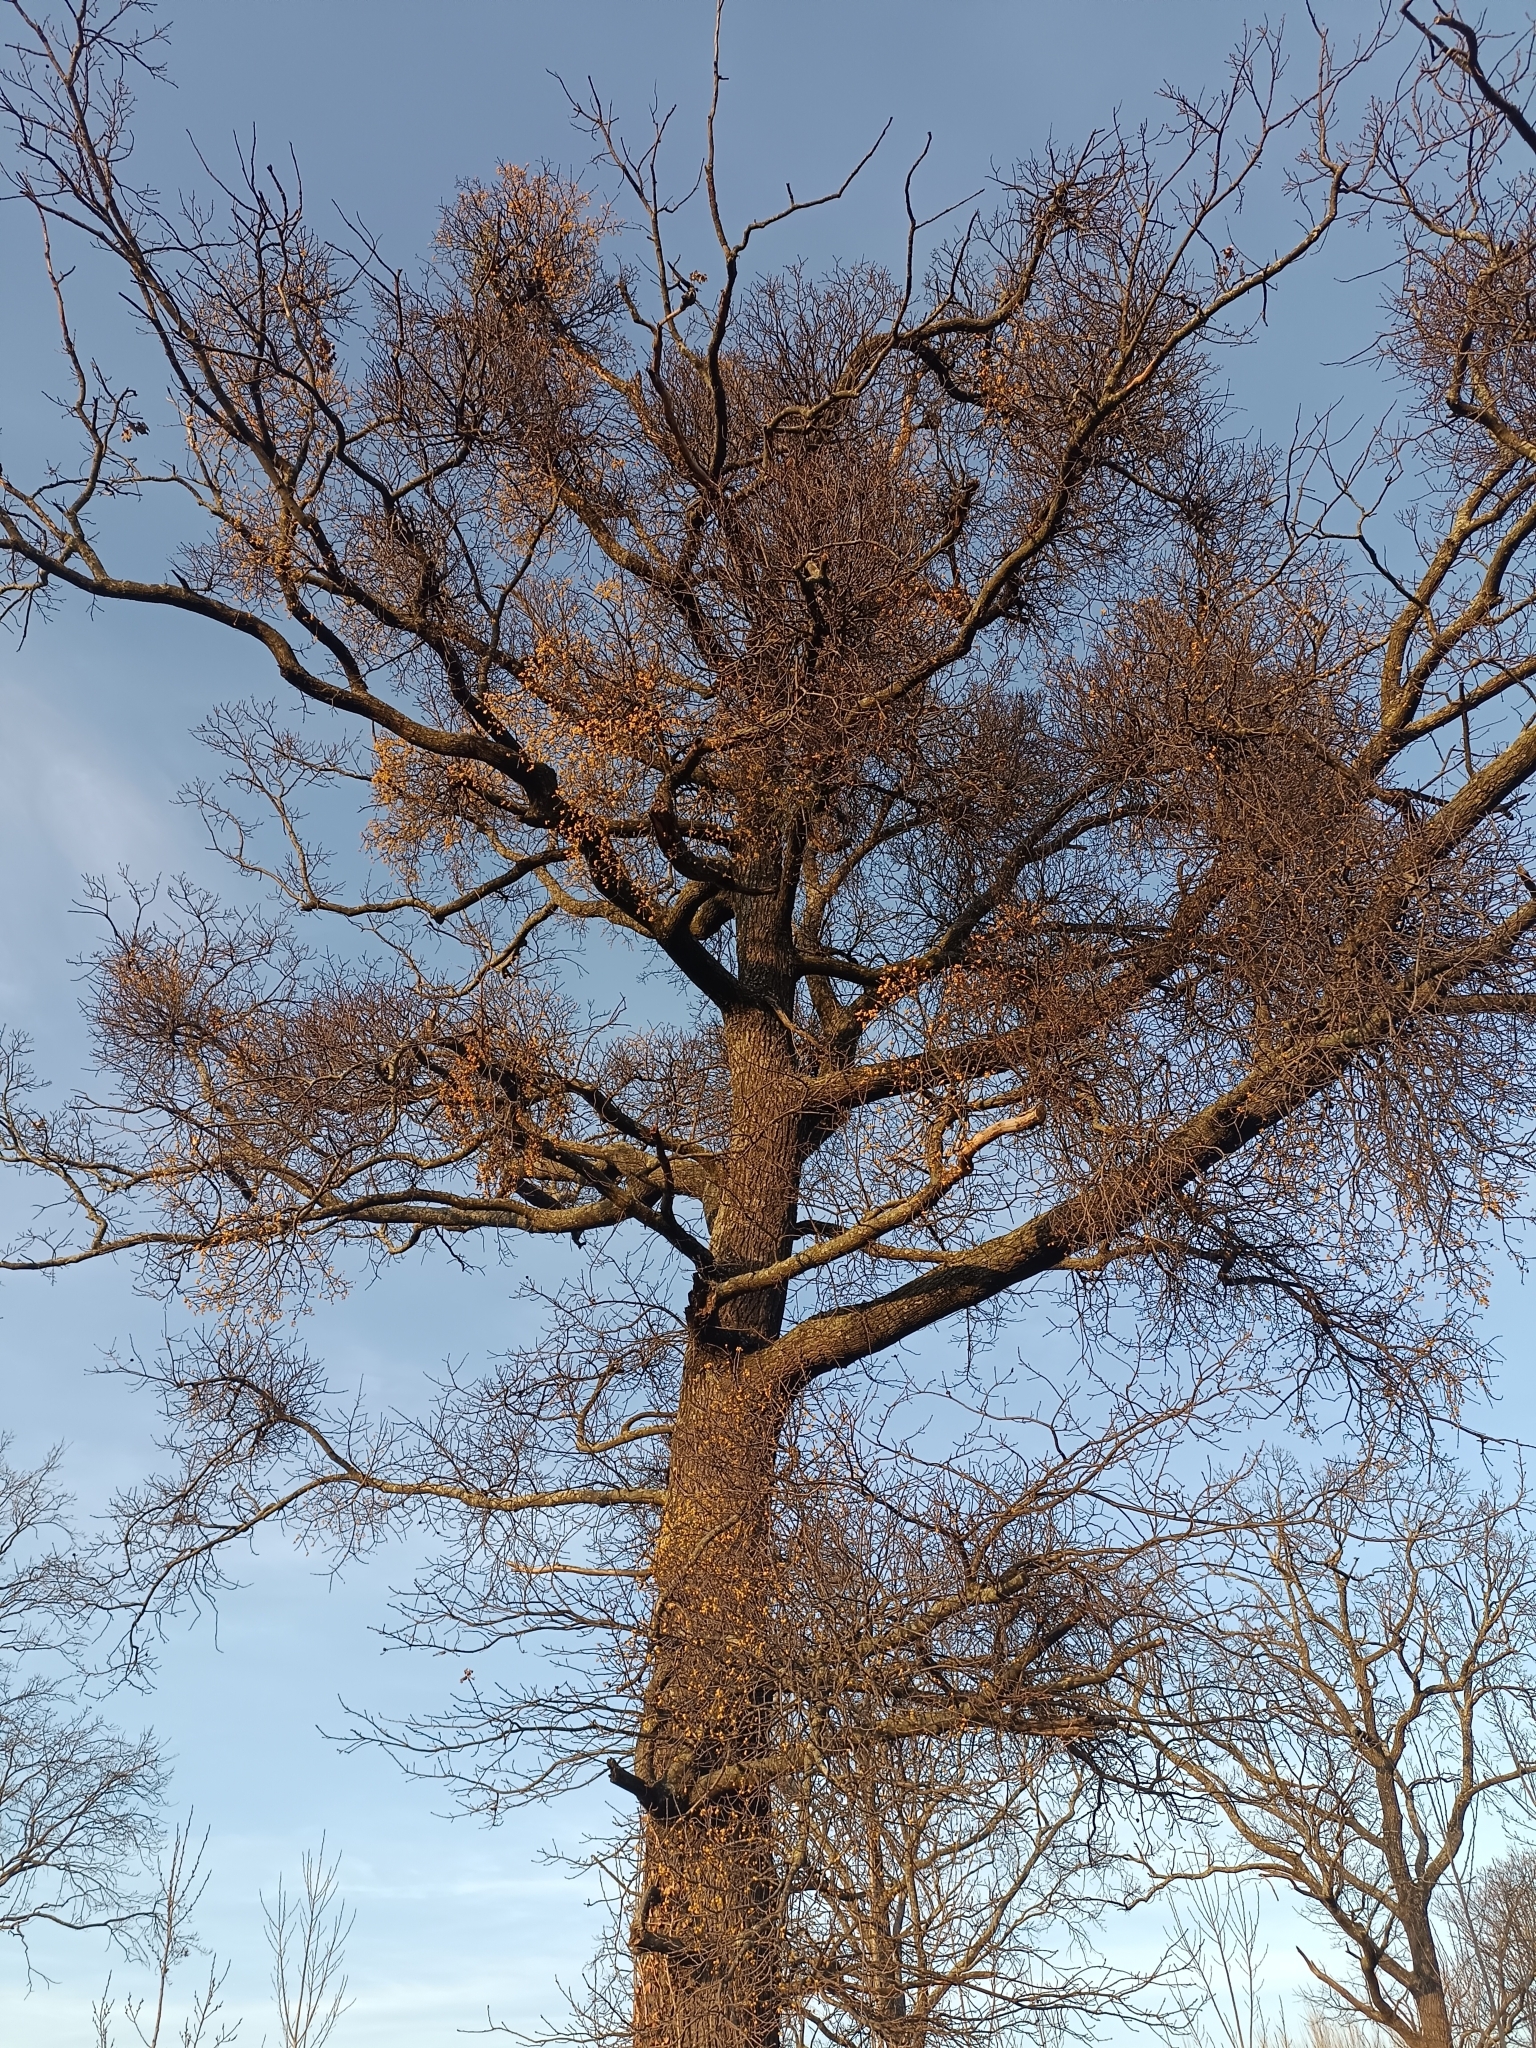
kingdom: Plantae
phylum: Tracheophyta
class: Magnoliopsida
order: Santalales
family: Loranthaceae
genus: Loranthus
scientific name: Loranthus europaeus
